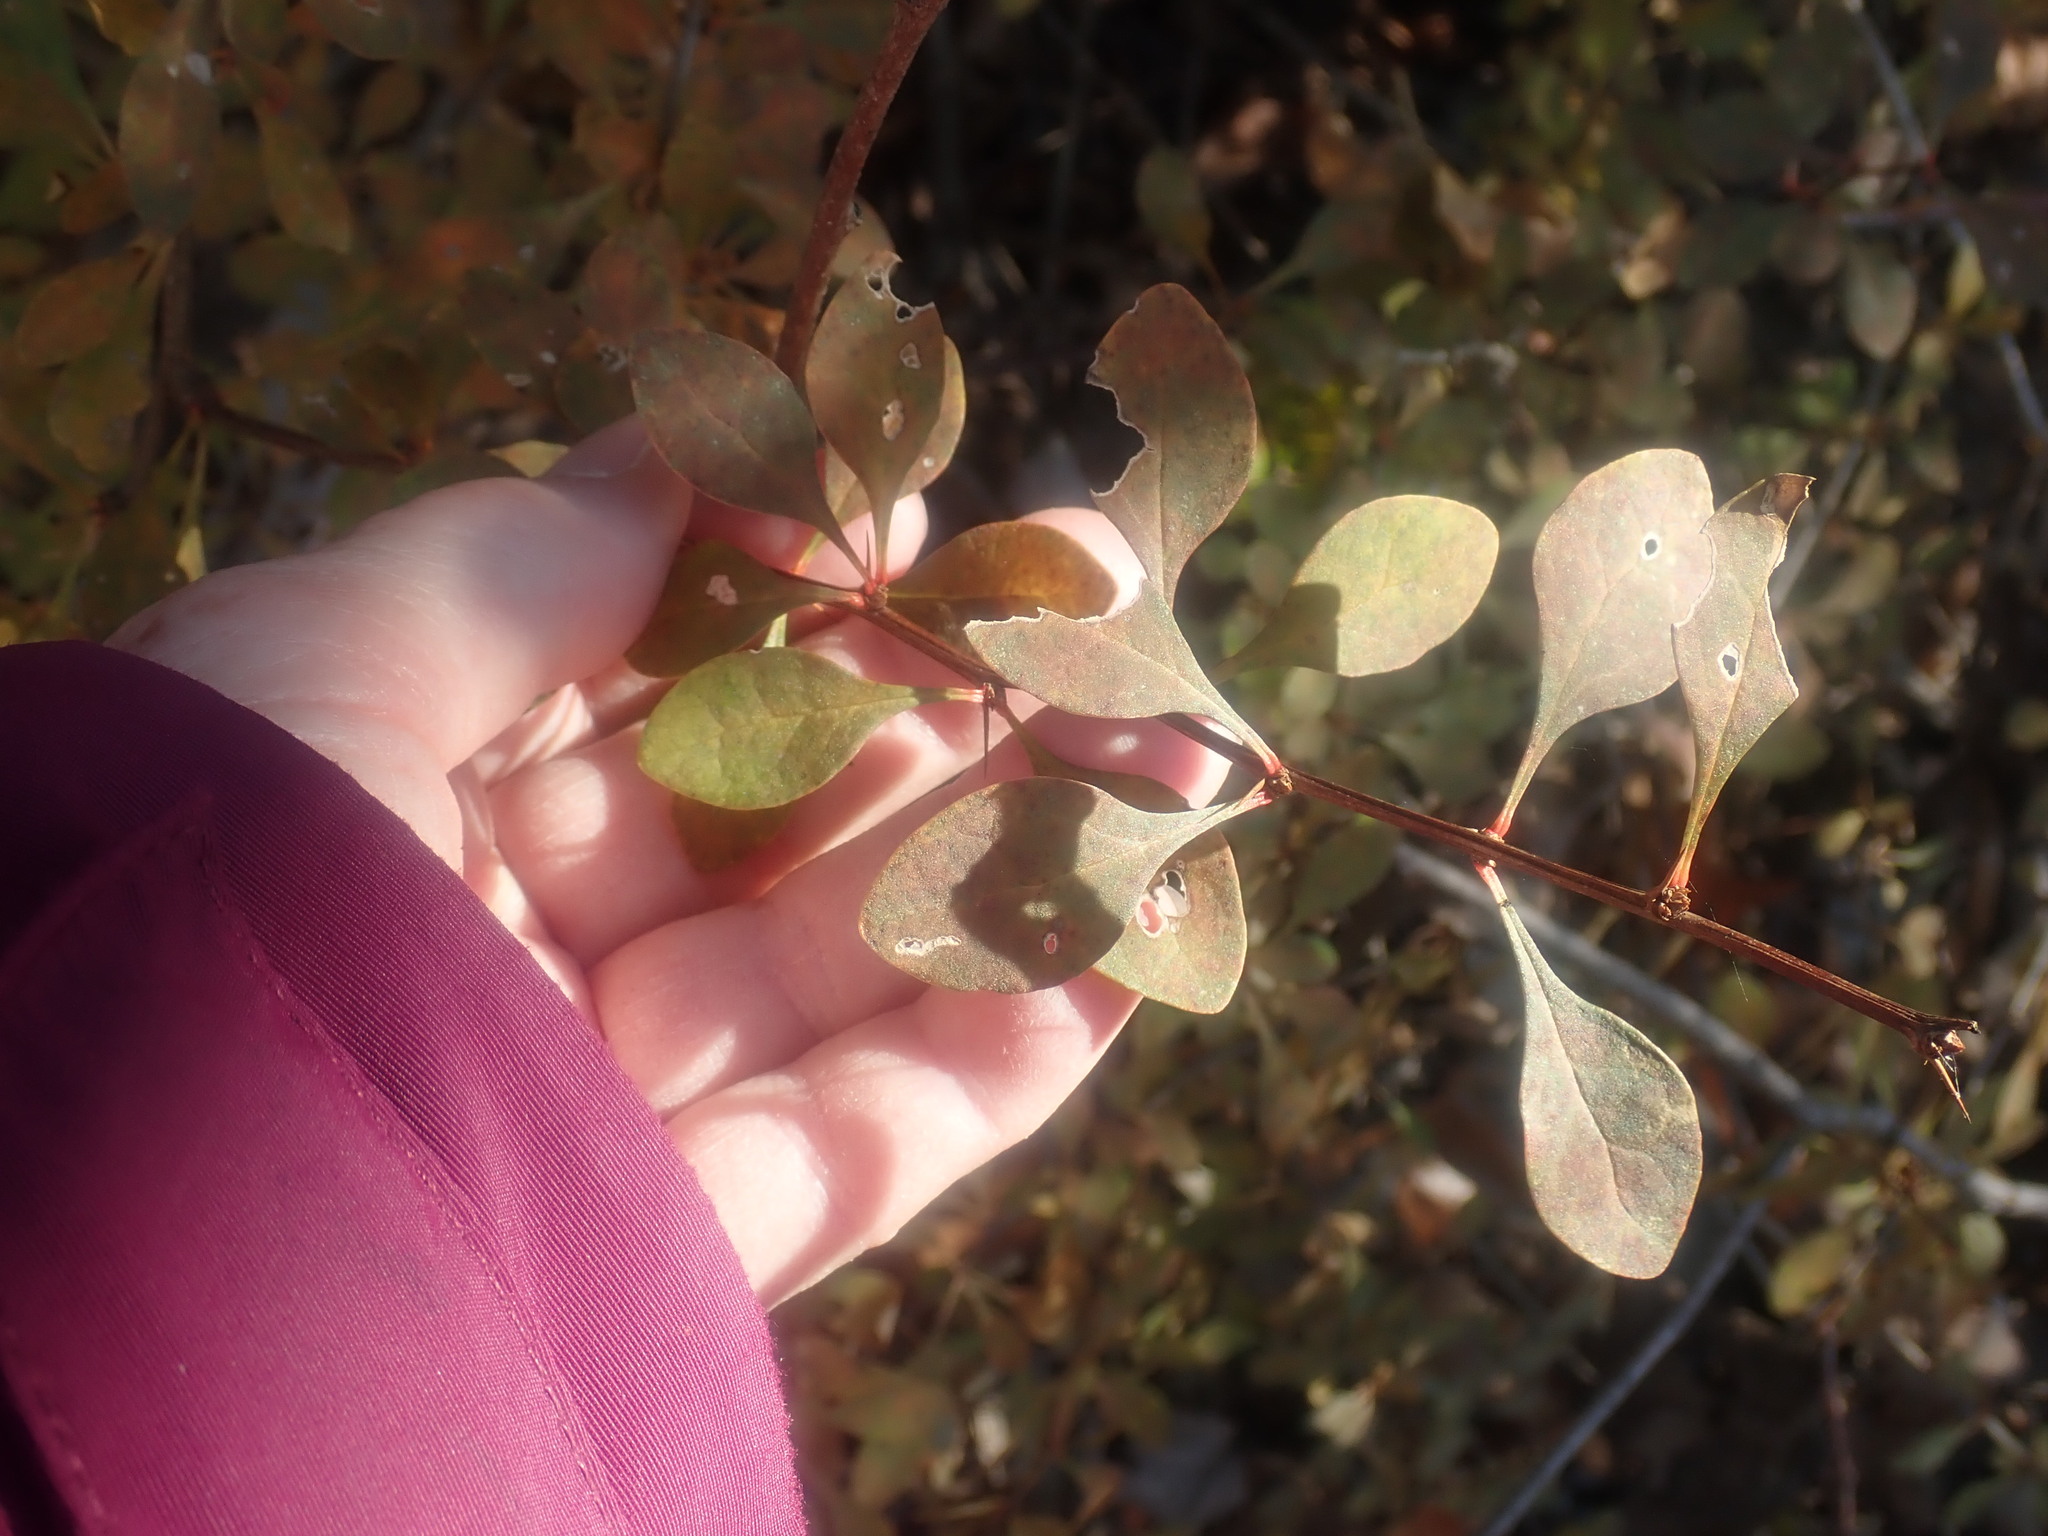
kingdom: Plantae
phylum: Tracheophyta
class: Magnoliopsida
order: Ranunculales
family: Berberidaceae
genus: Berberis
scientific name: Berberis thunbergii
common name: Japanese barberry
